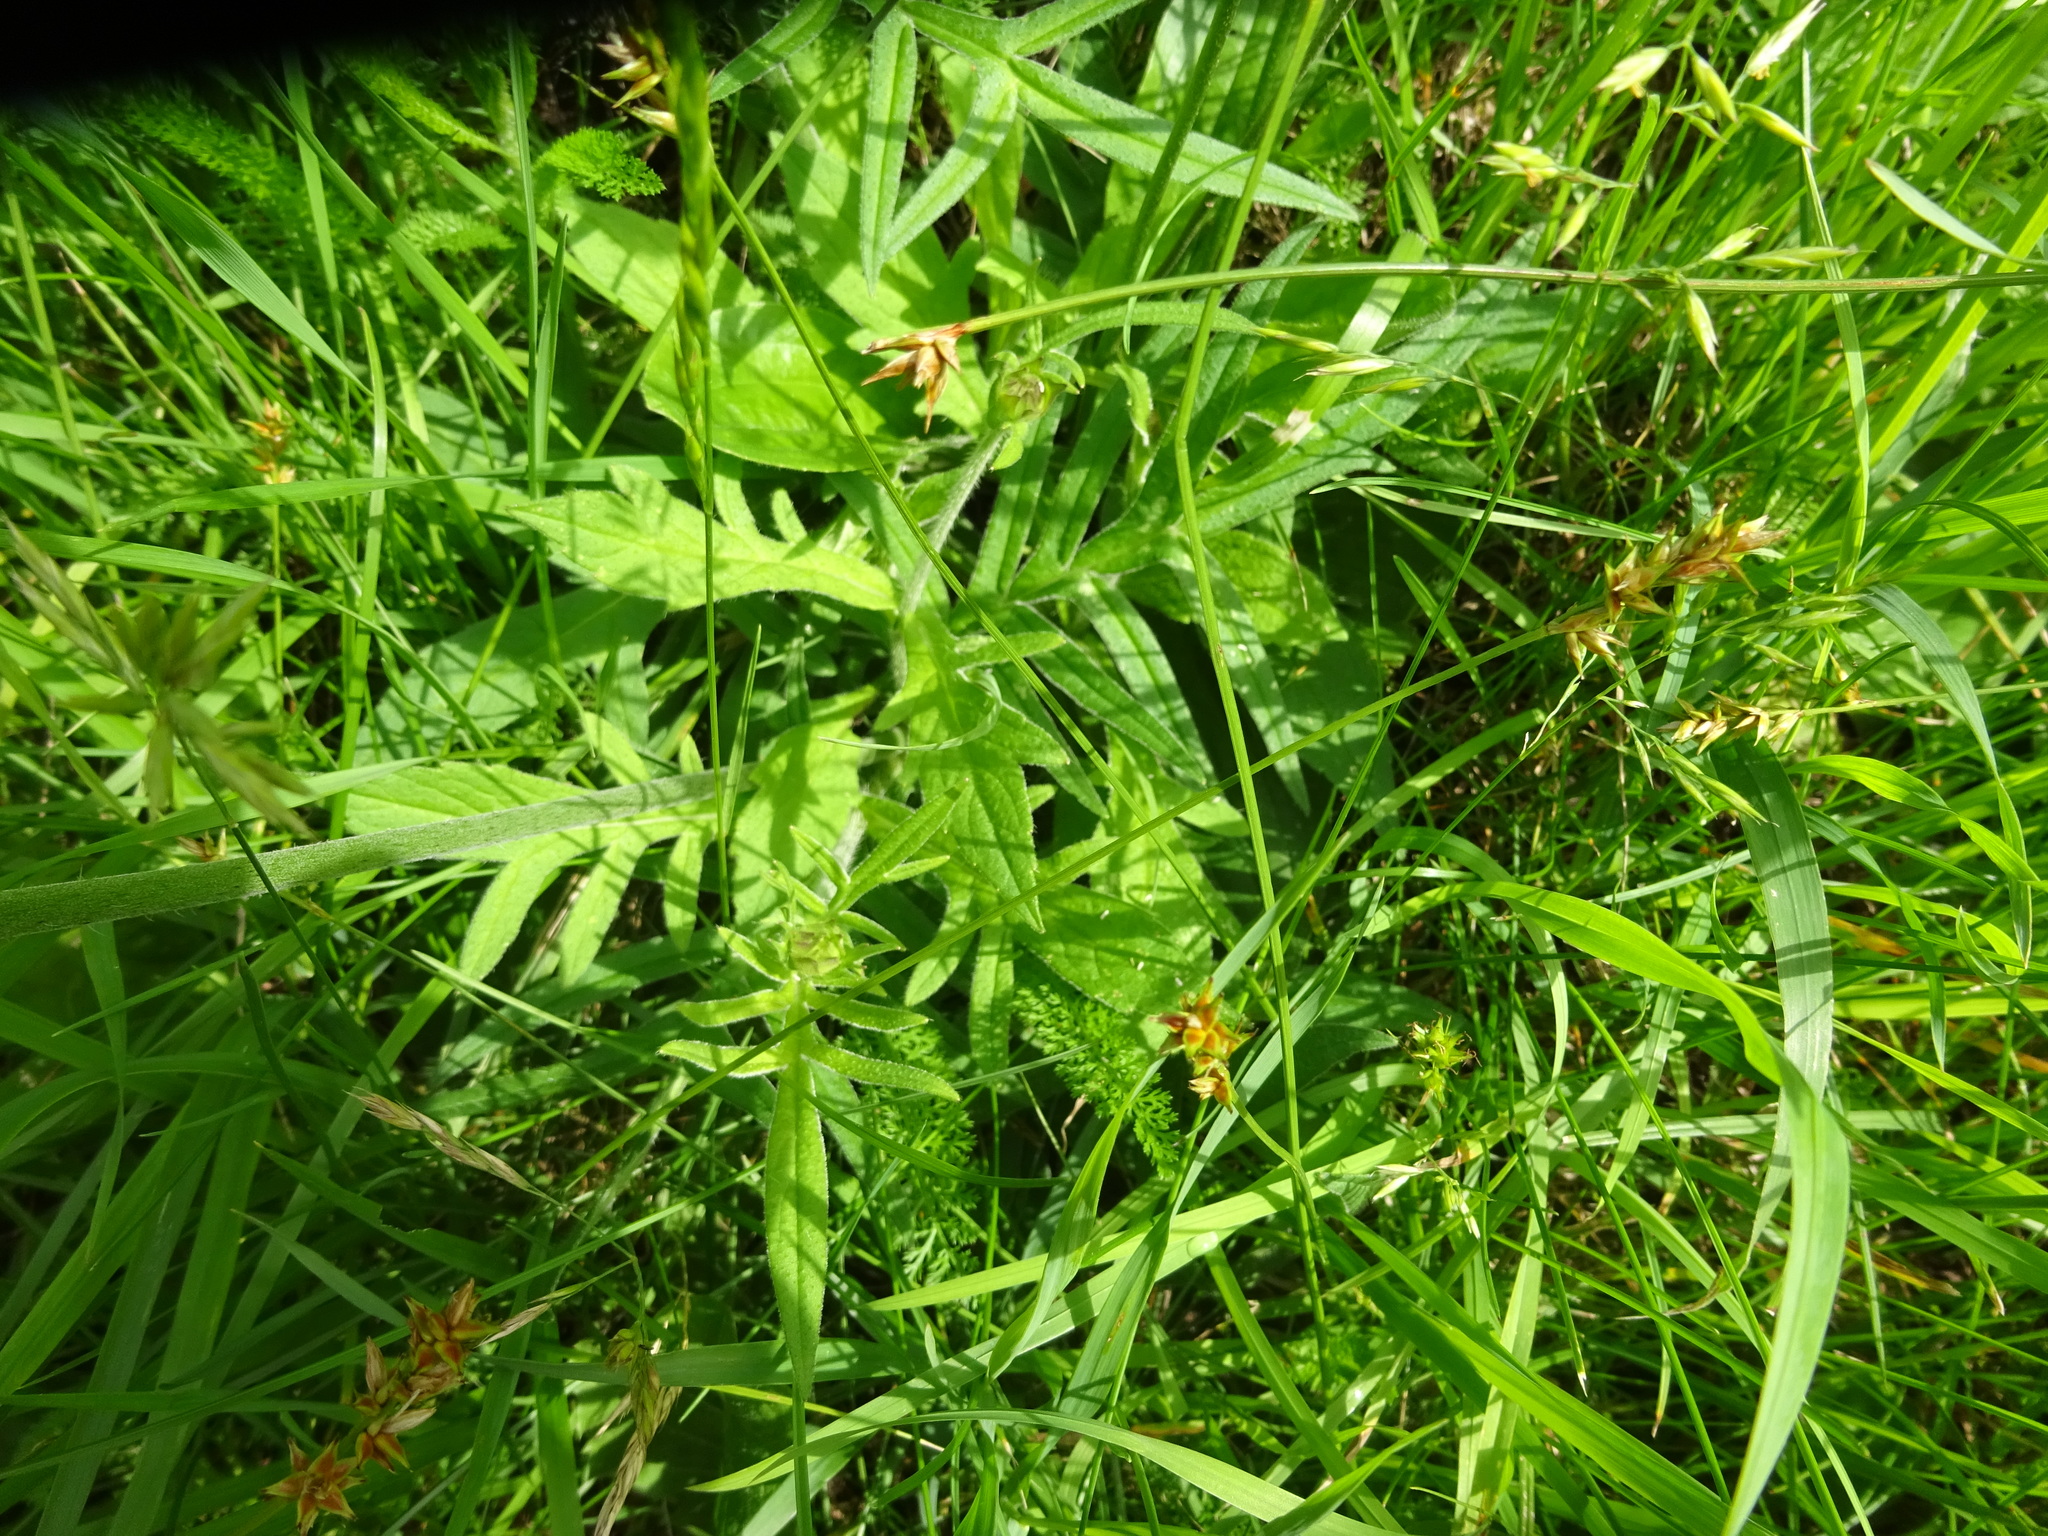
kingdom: Plantae
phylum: Tracheophyta
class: Magnoliopsida
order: Dipsacales
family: Caprifoliaceae
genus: Knautia
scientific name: Knautia arvensis
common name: Field scabiosa
